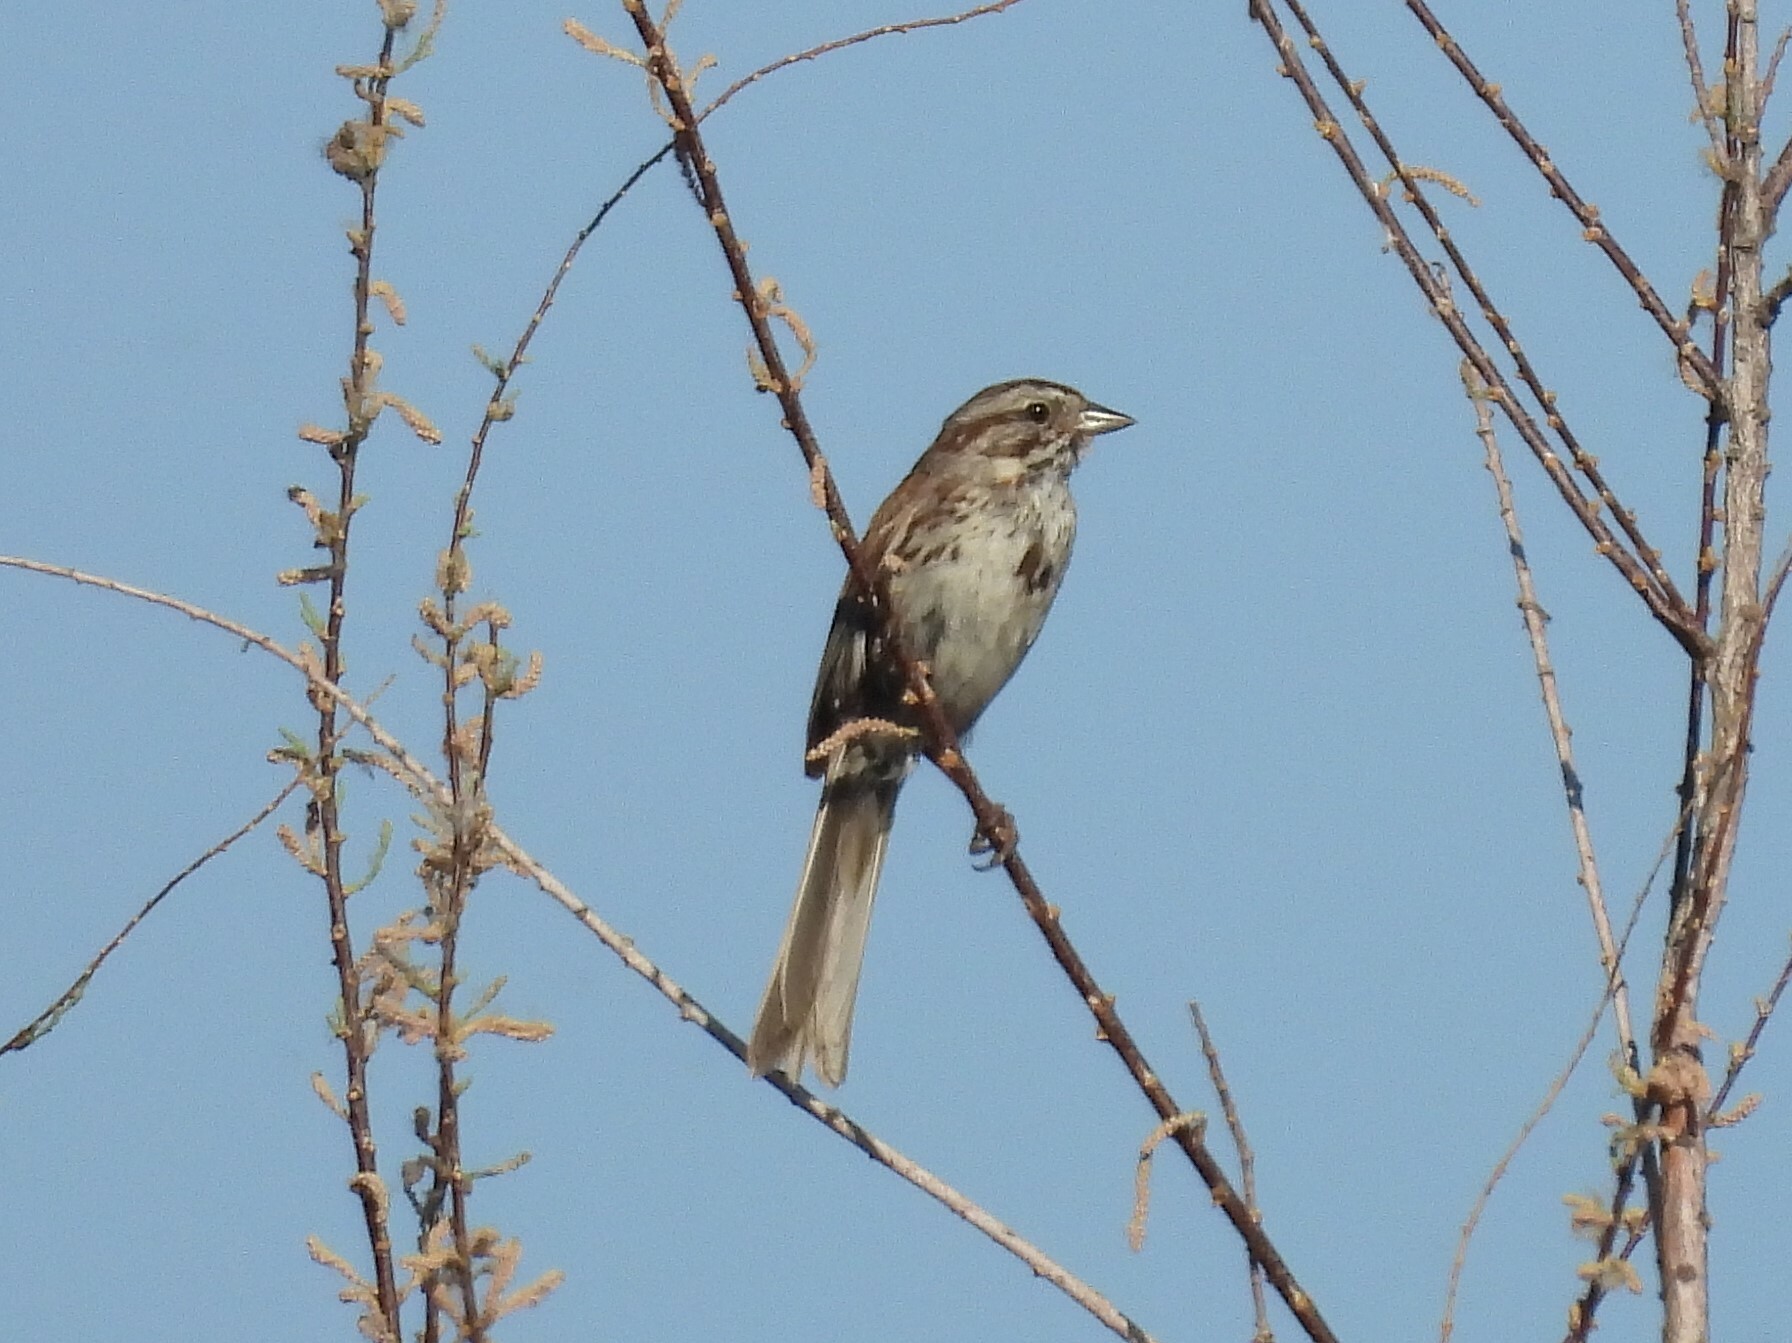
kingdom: Animalia
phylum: Chordata
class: Aves
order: Passeriformes
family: Passerellidae
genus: Melospiza
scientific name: Melospiza melodia
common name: Song sparrow
